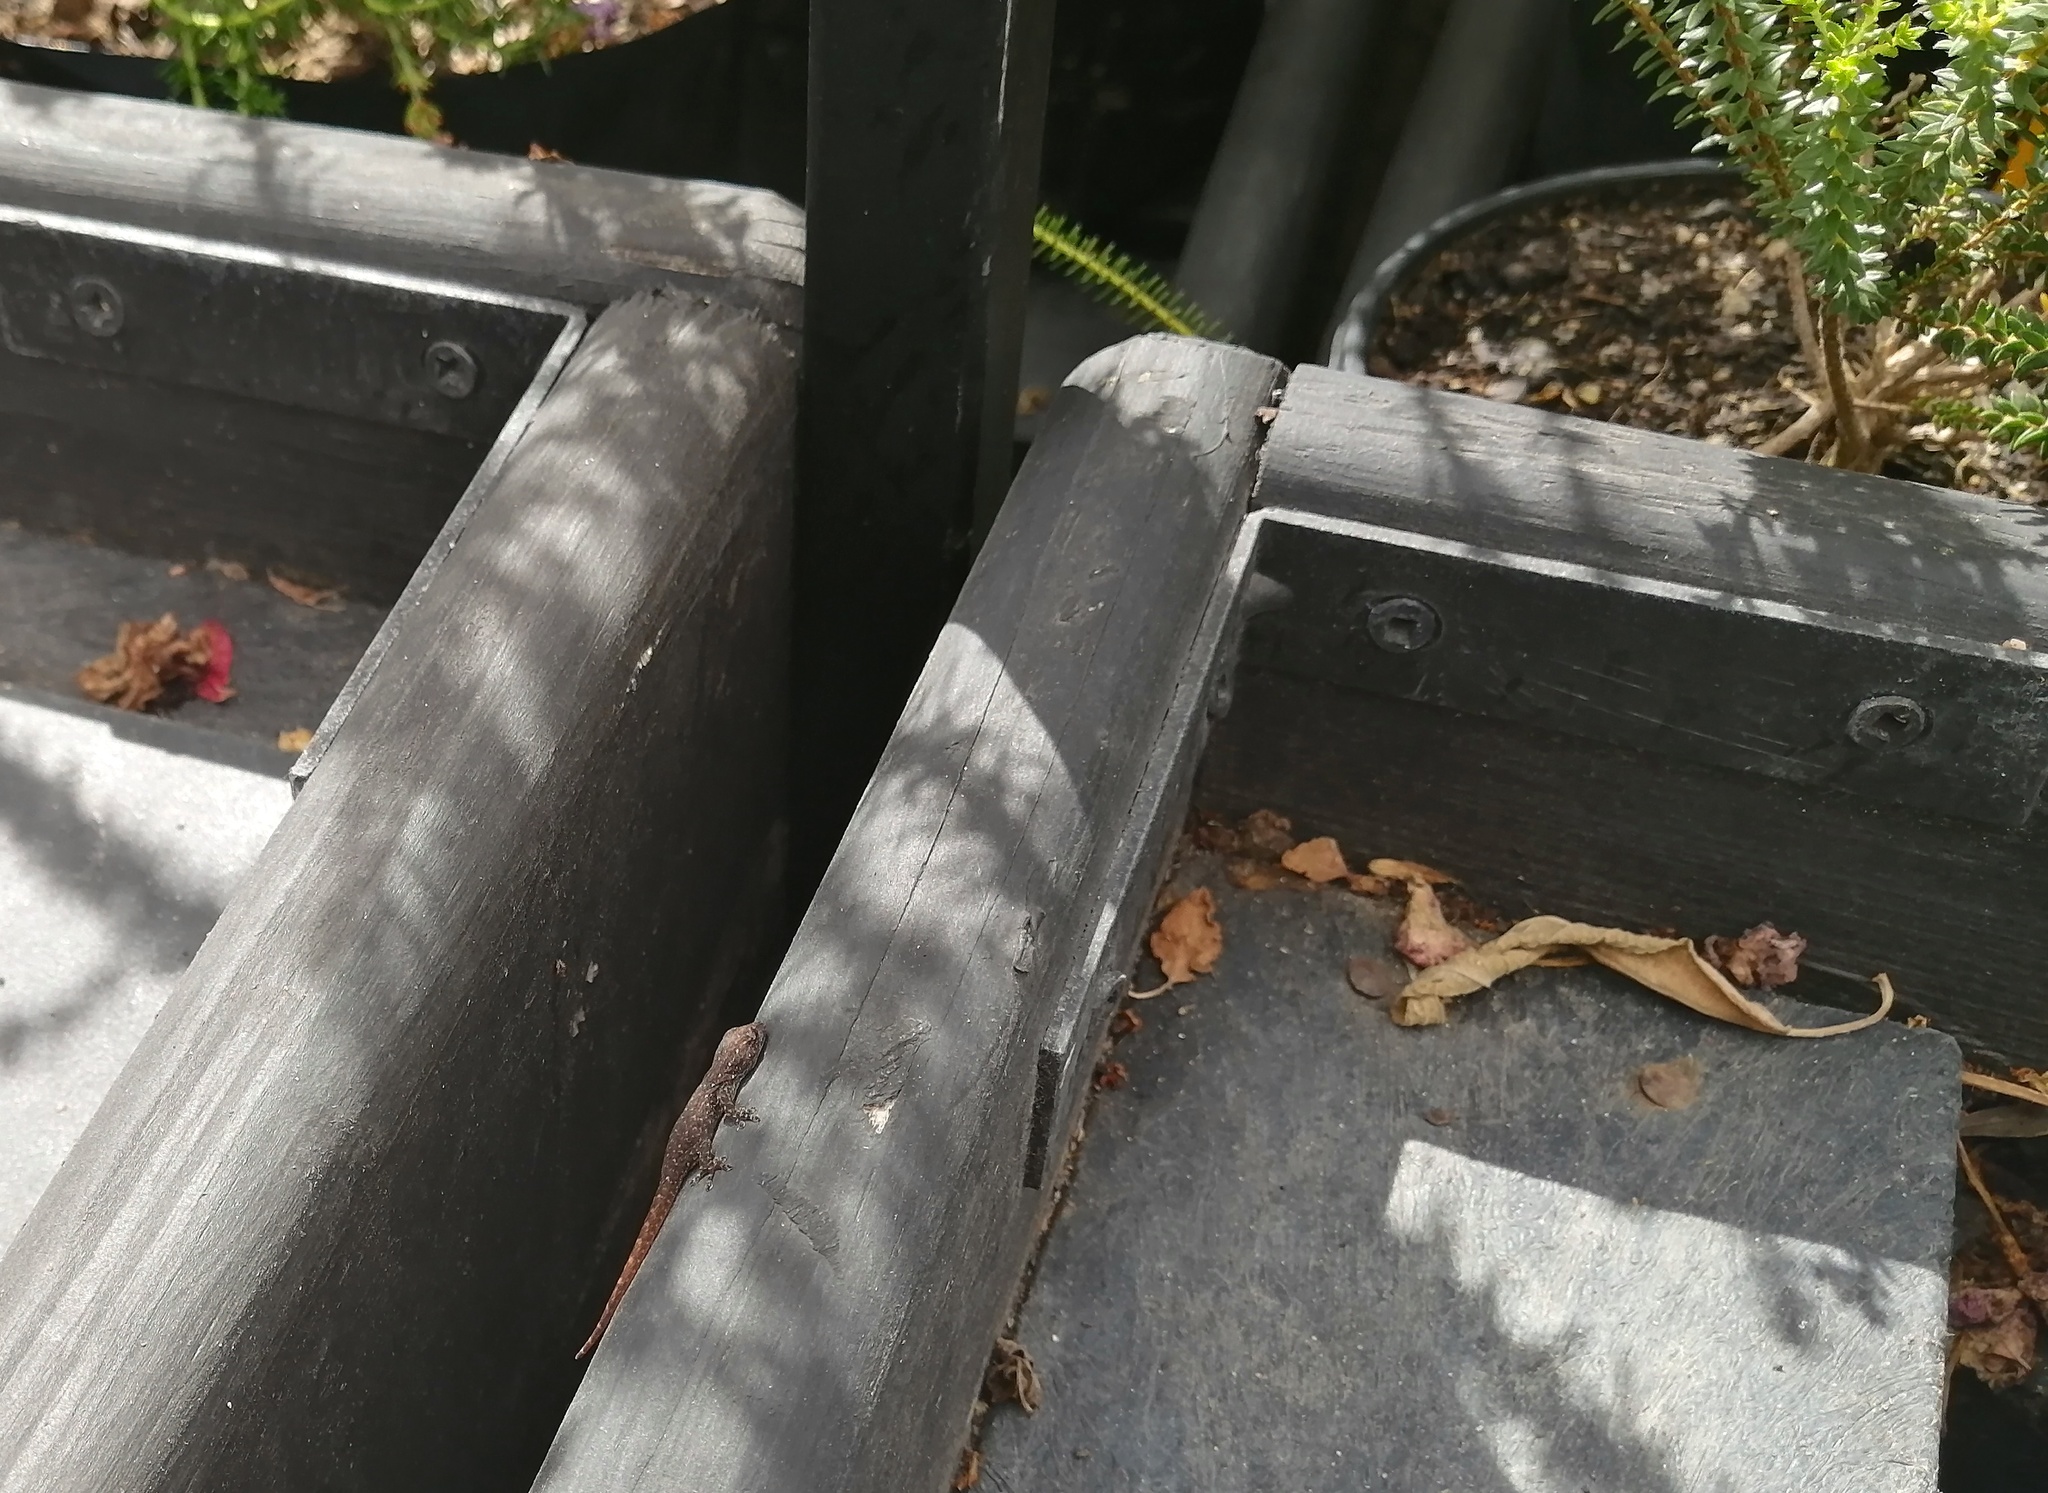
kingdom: Animalia
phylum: Chordata
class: Squamata
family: Gekkonidae
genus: Lygodactylus
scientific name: Lygodactylus capensis
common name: Cape dwarf gecko
